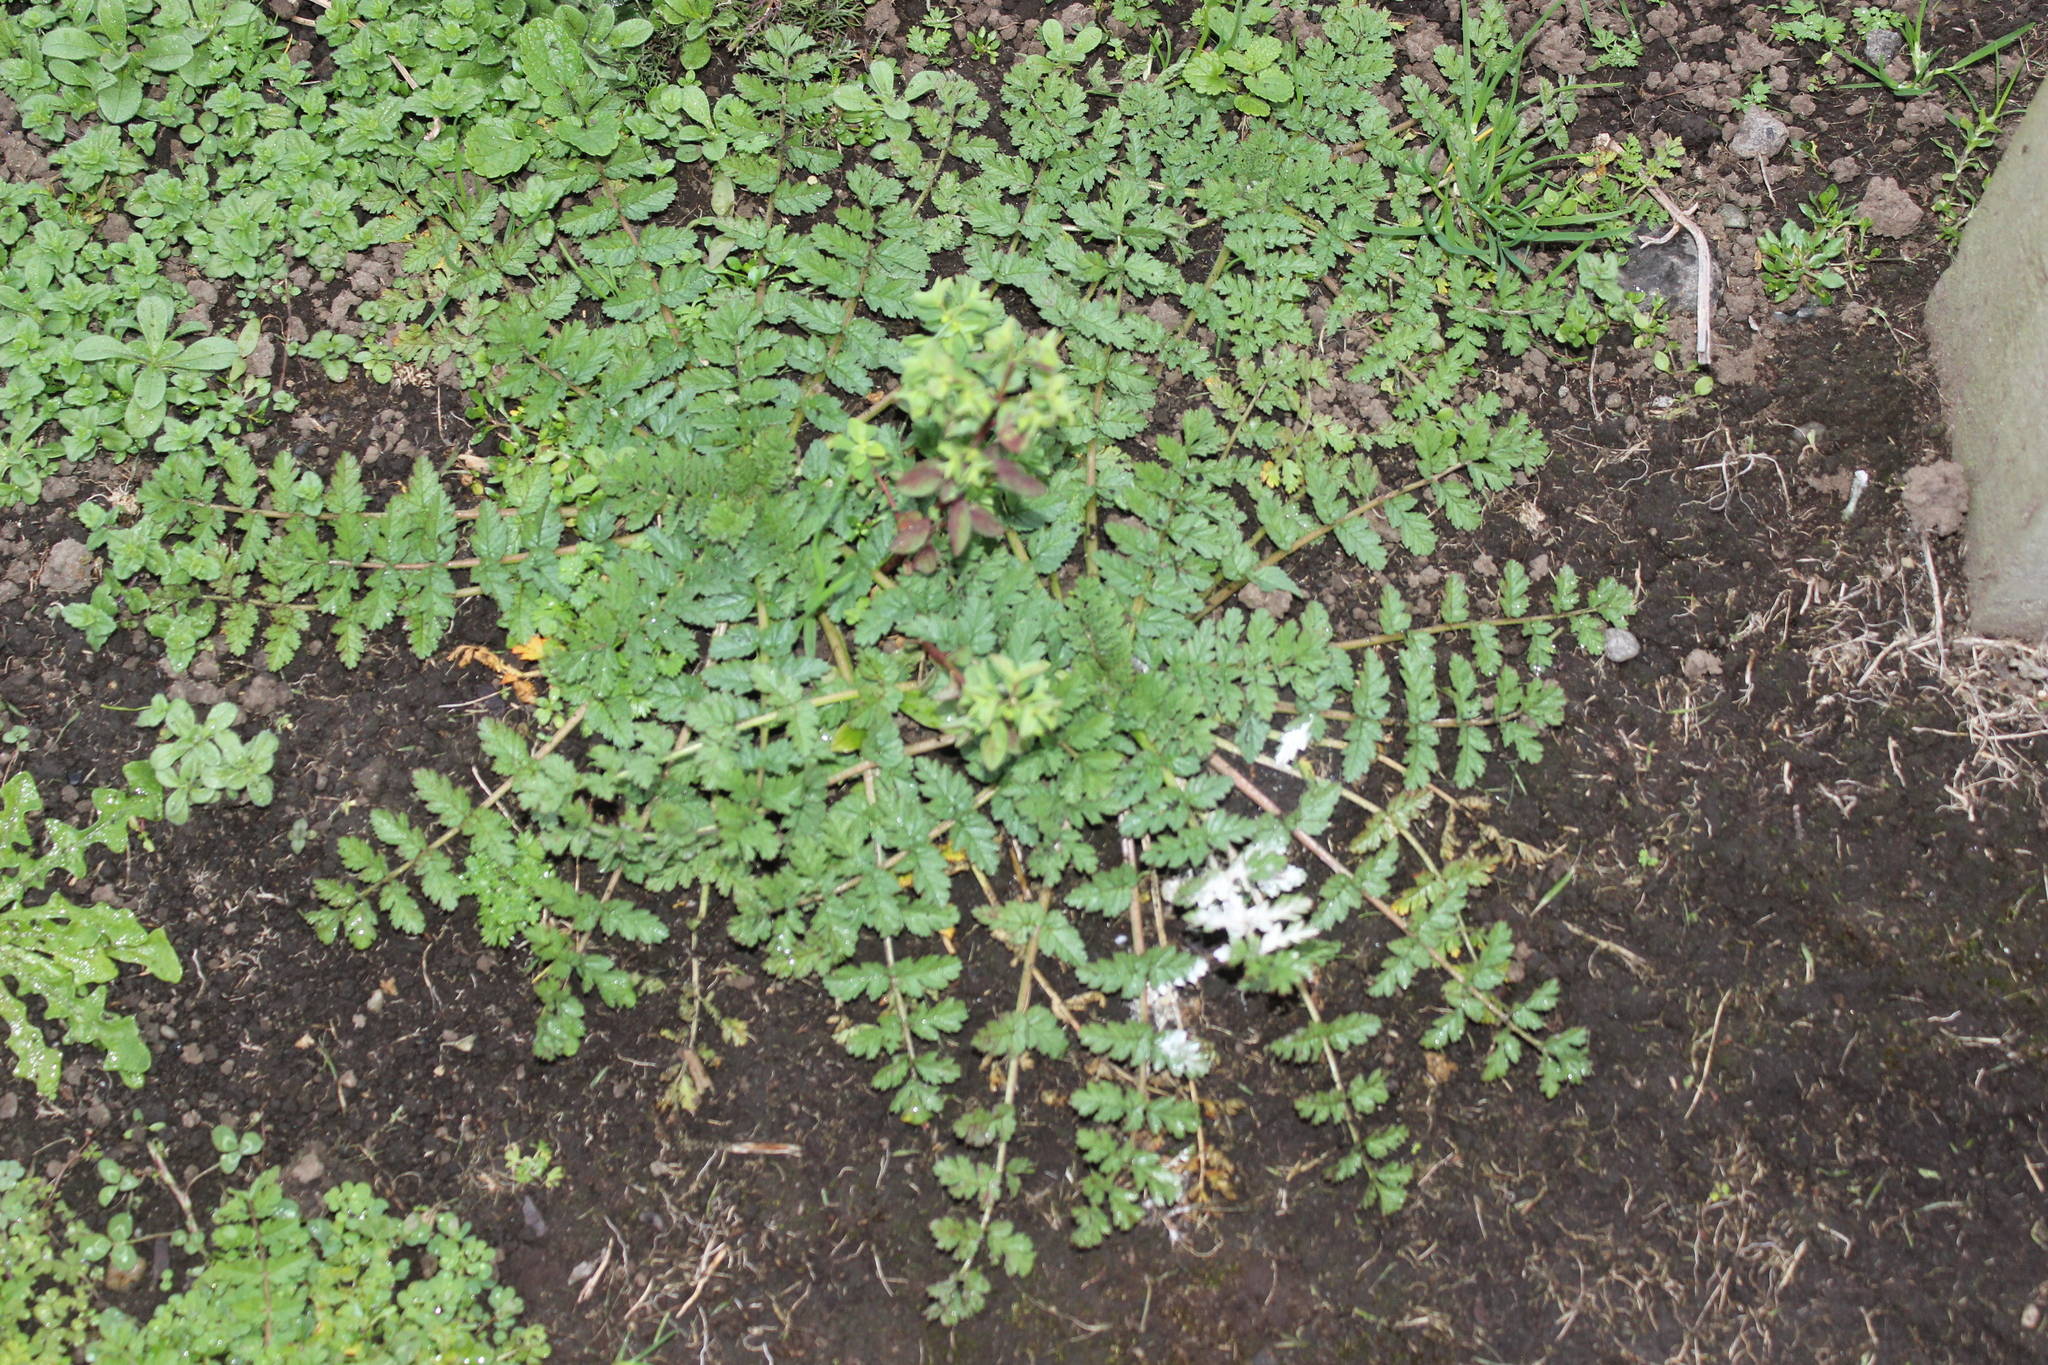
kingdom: Plantae
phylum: Tracheophyta
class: Magnoliopsida
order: Geraniales
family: Geraniaceae
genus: Erodium
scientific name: Erodium moschatum
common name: Musk stork's-bill
